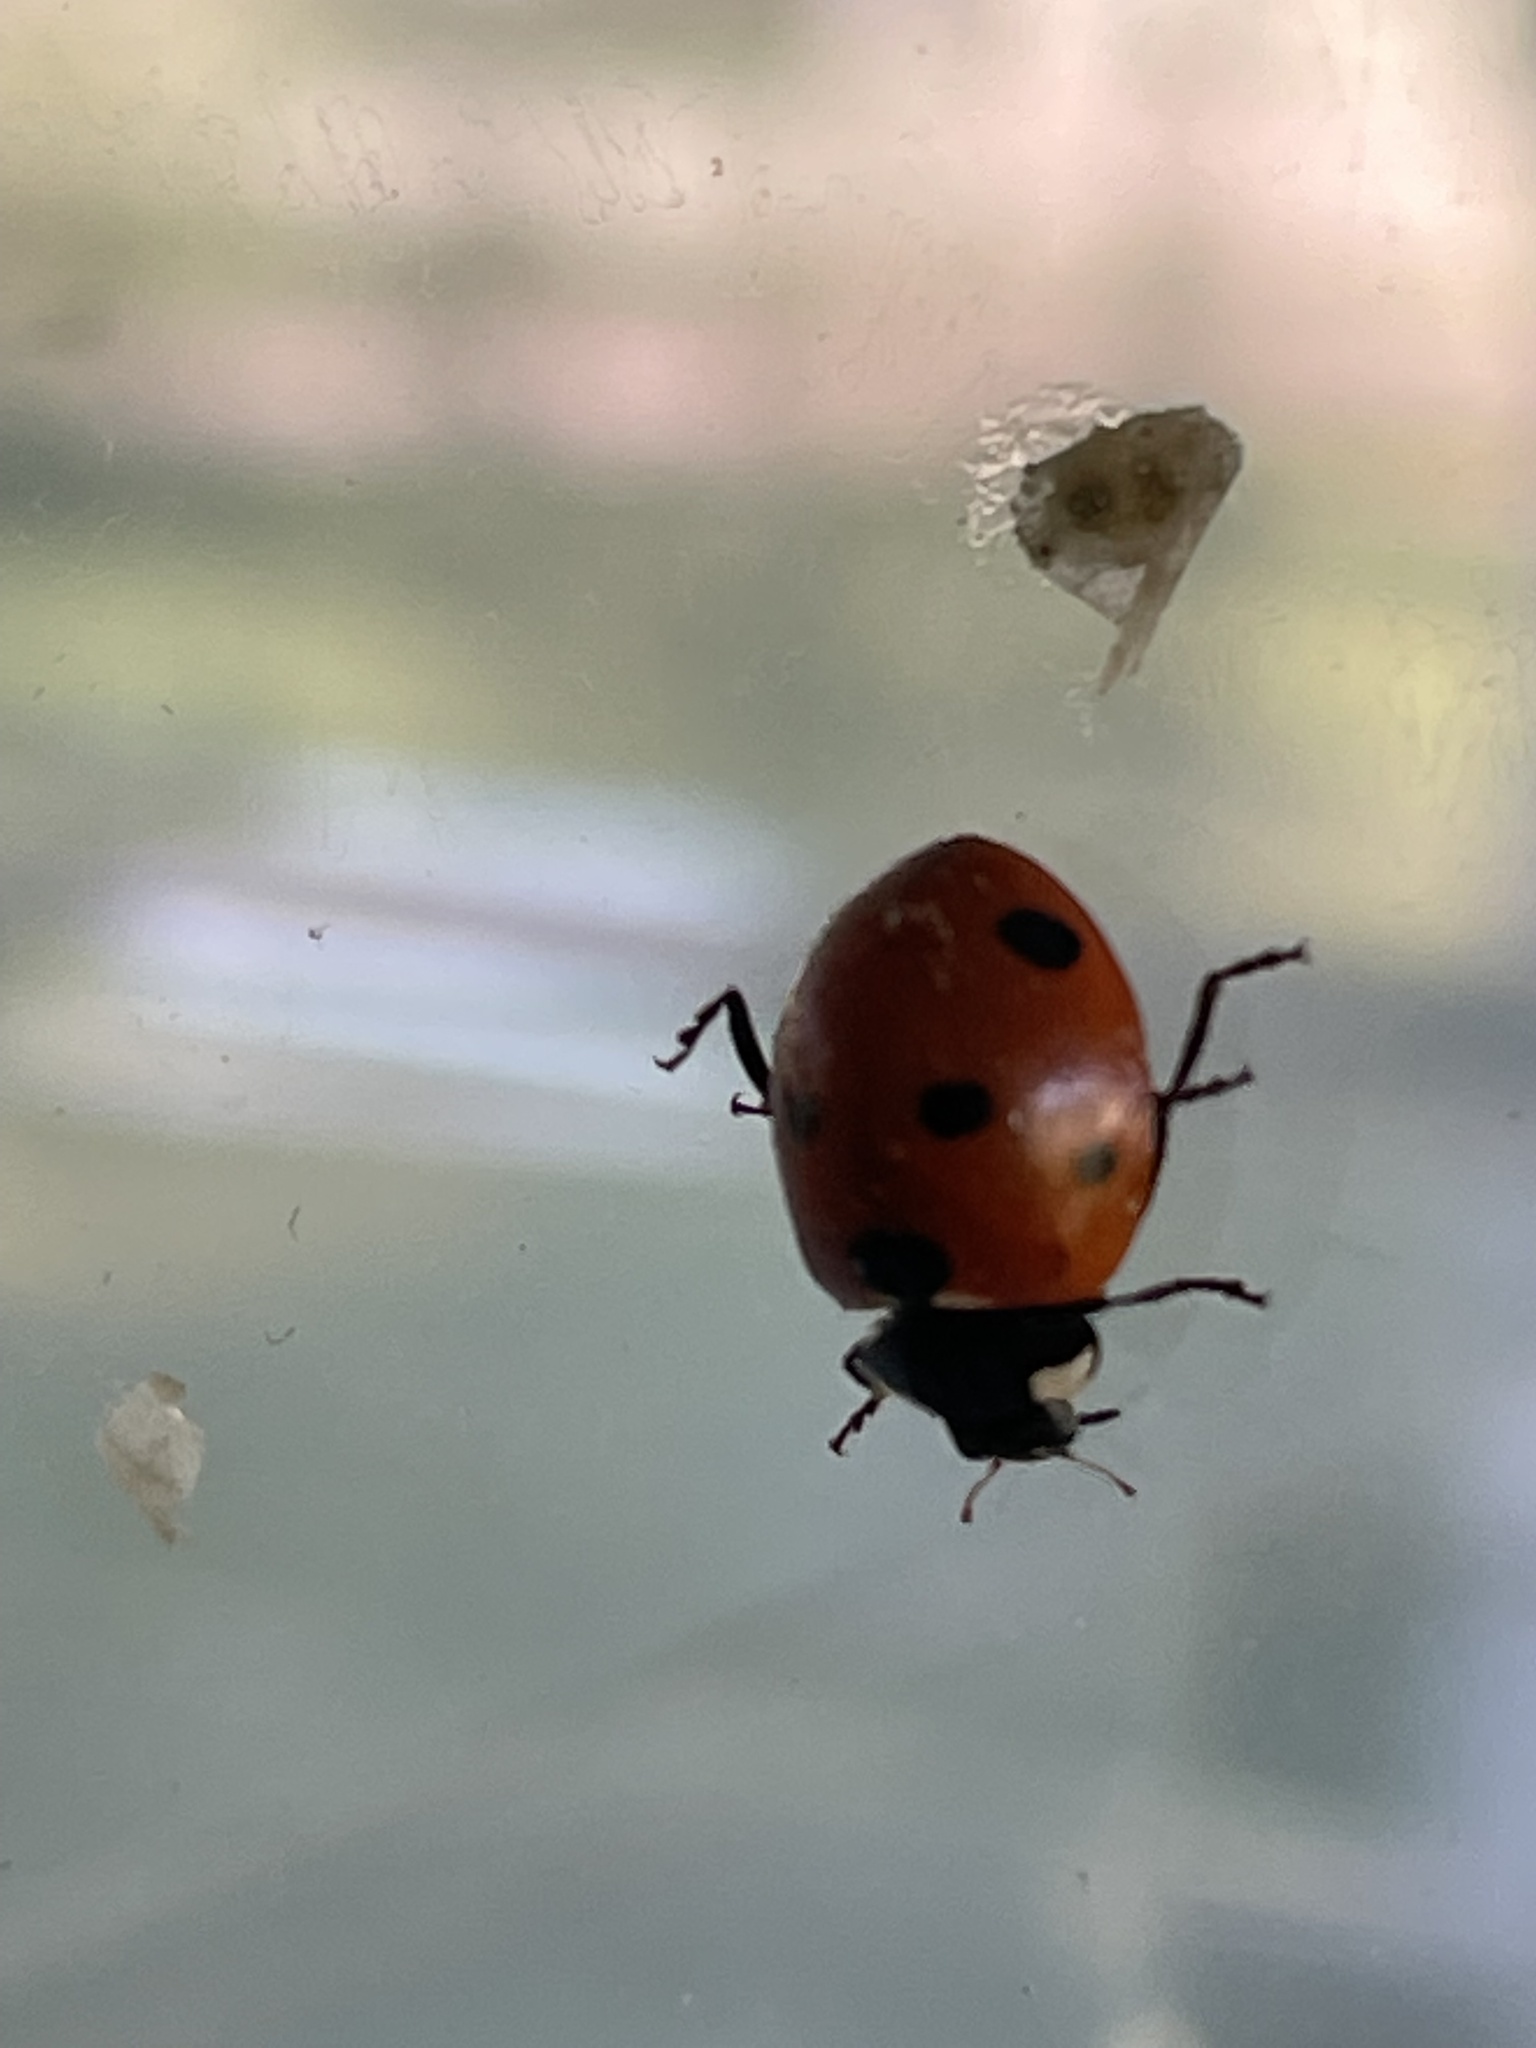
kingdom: Animalia
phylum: Arthropoda
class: Insecta
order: Coleoptera
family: Coccinellidae
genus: Coccinella
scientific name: Coccinella septempunctata
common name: Sevenspotted lady beetle
